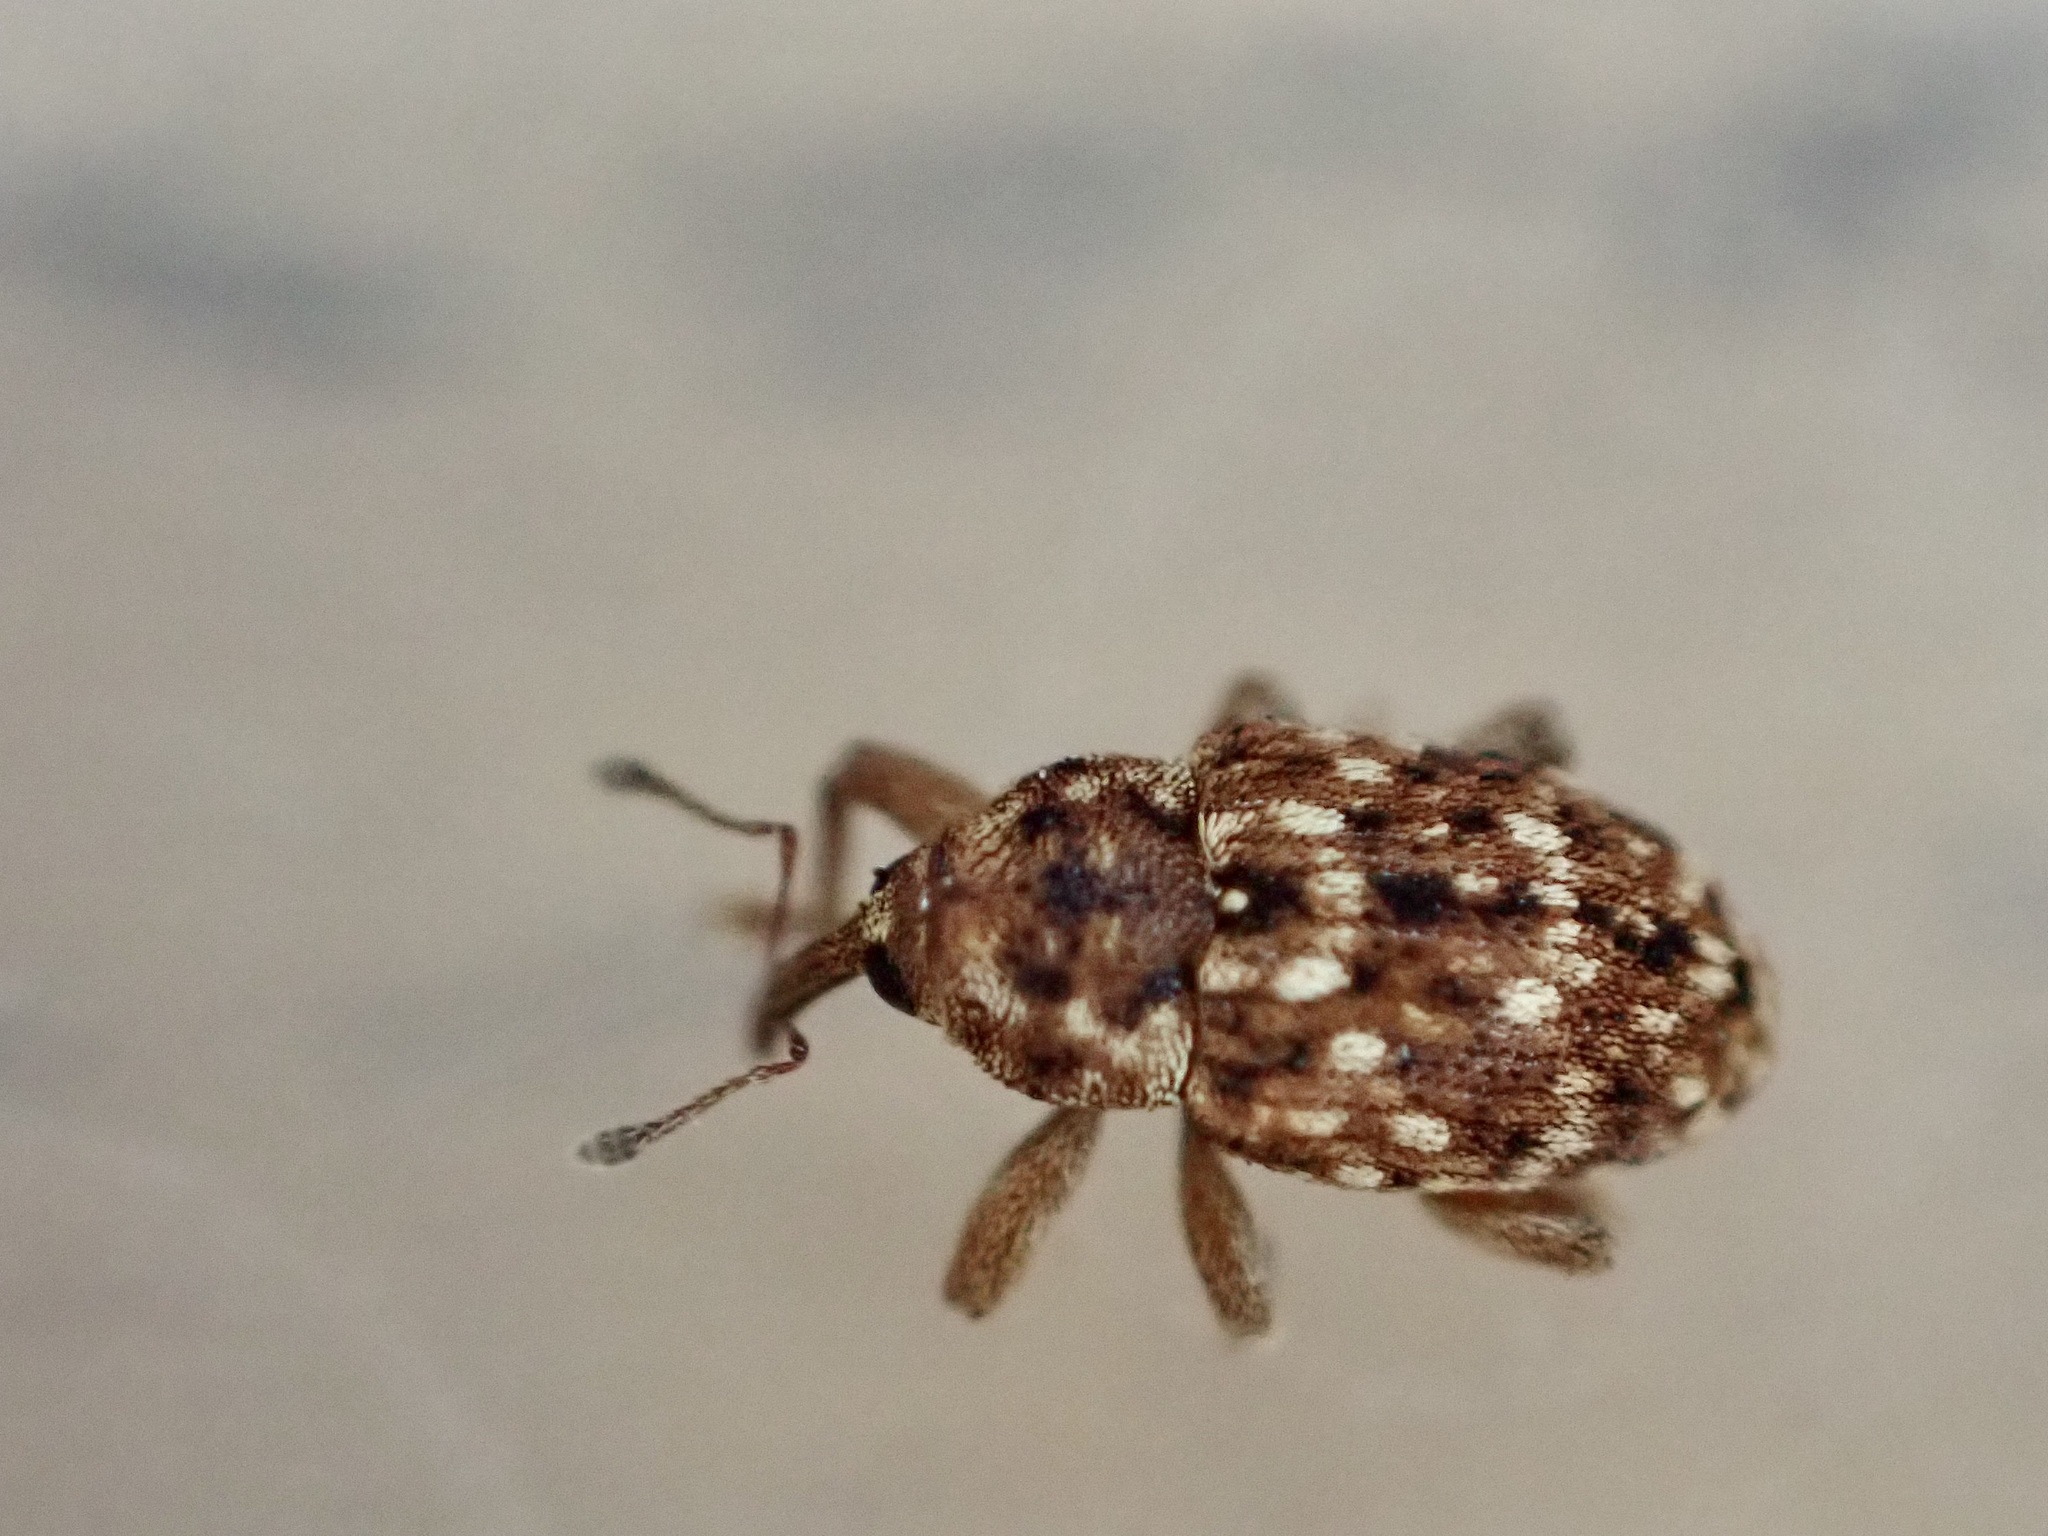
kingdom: Animalia
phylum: Arthropoda
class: Insecta
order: Coleoptera
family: Curculionidae
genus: Storeus
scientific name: Storeus albosignatus
